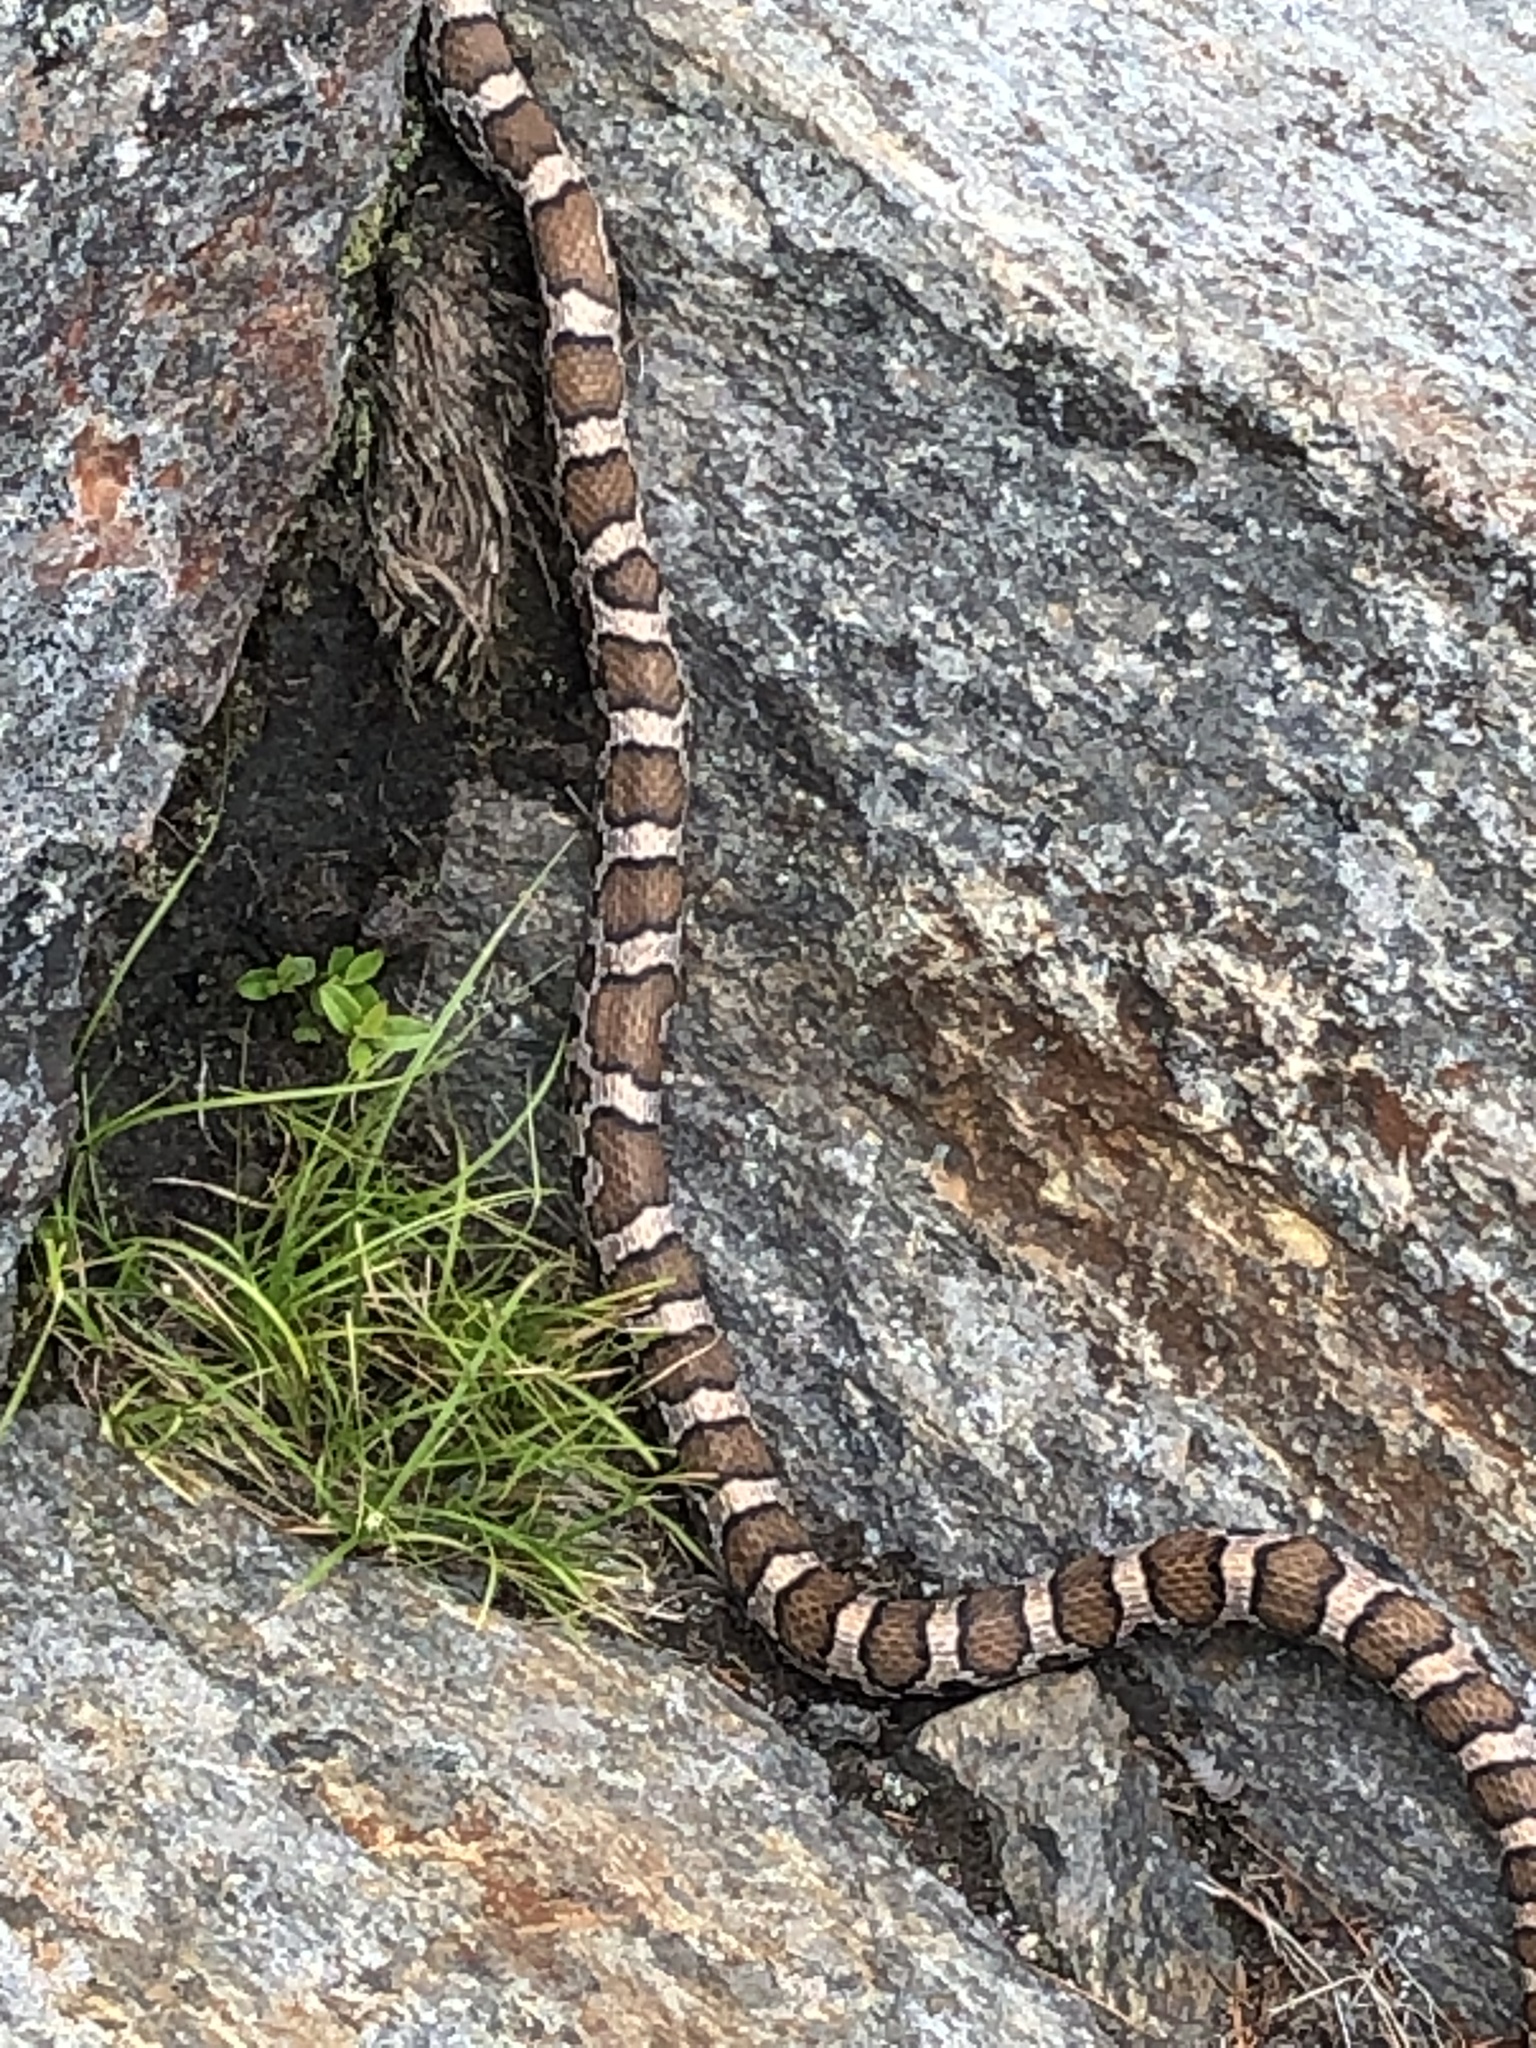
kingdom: Animalia
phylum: Chordata
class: Squamata
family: Colubridae
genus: Lampropeltis
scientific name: Lampropeltis triangulum
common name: Eastern milksnake
